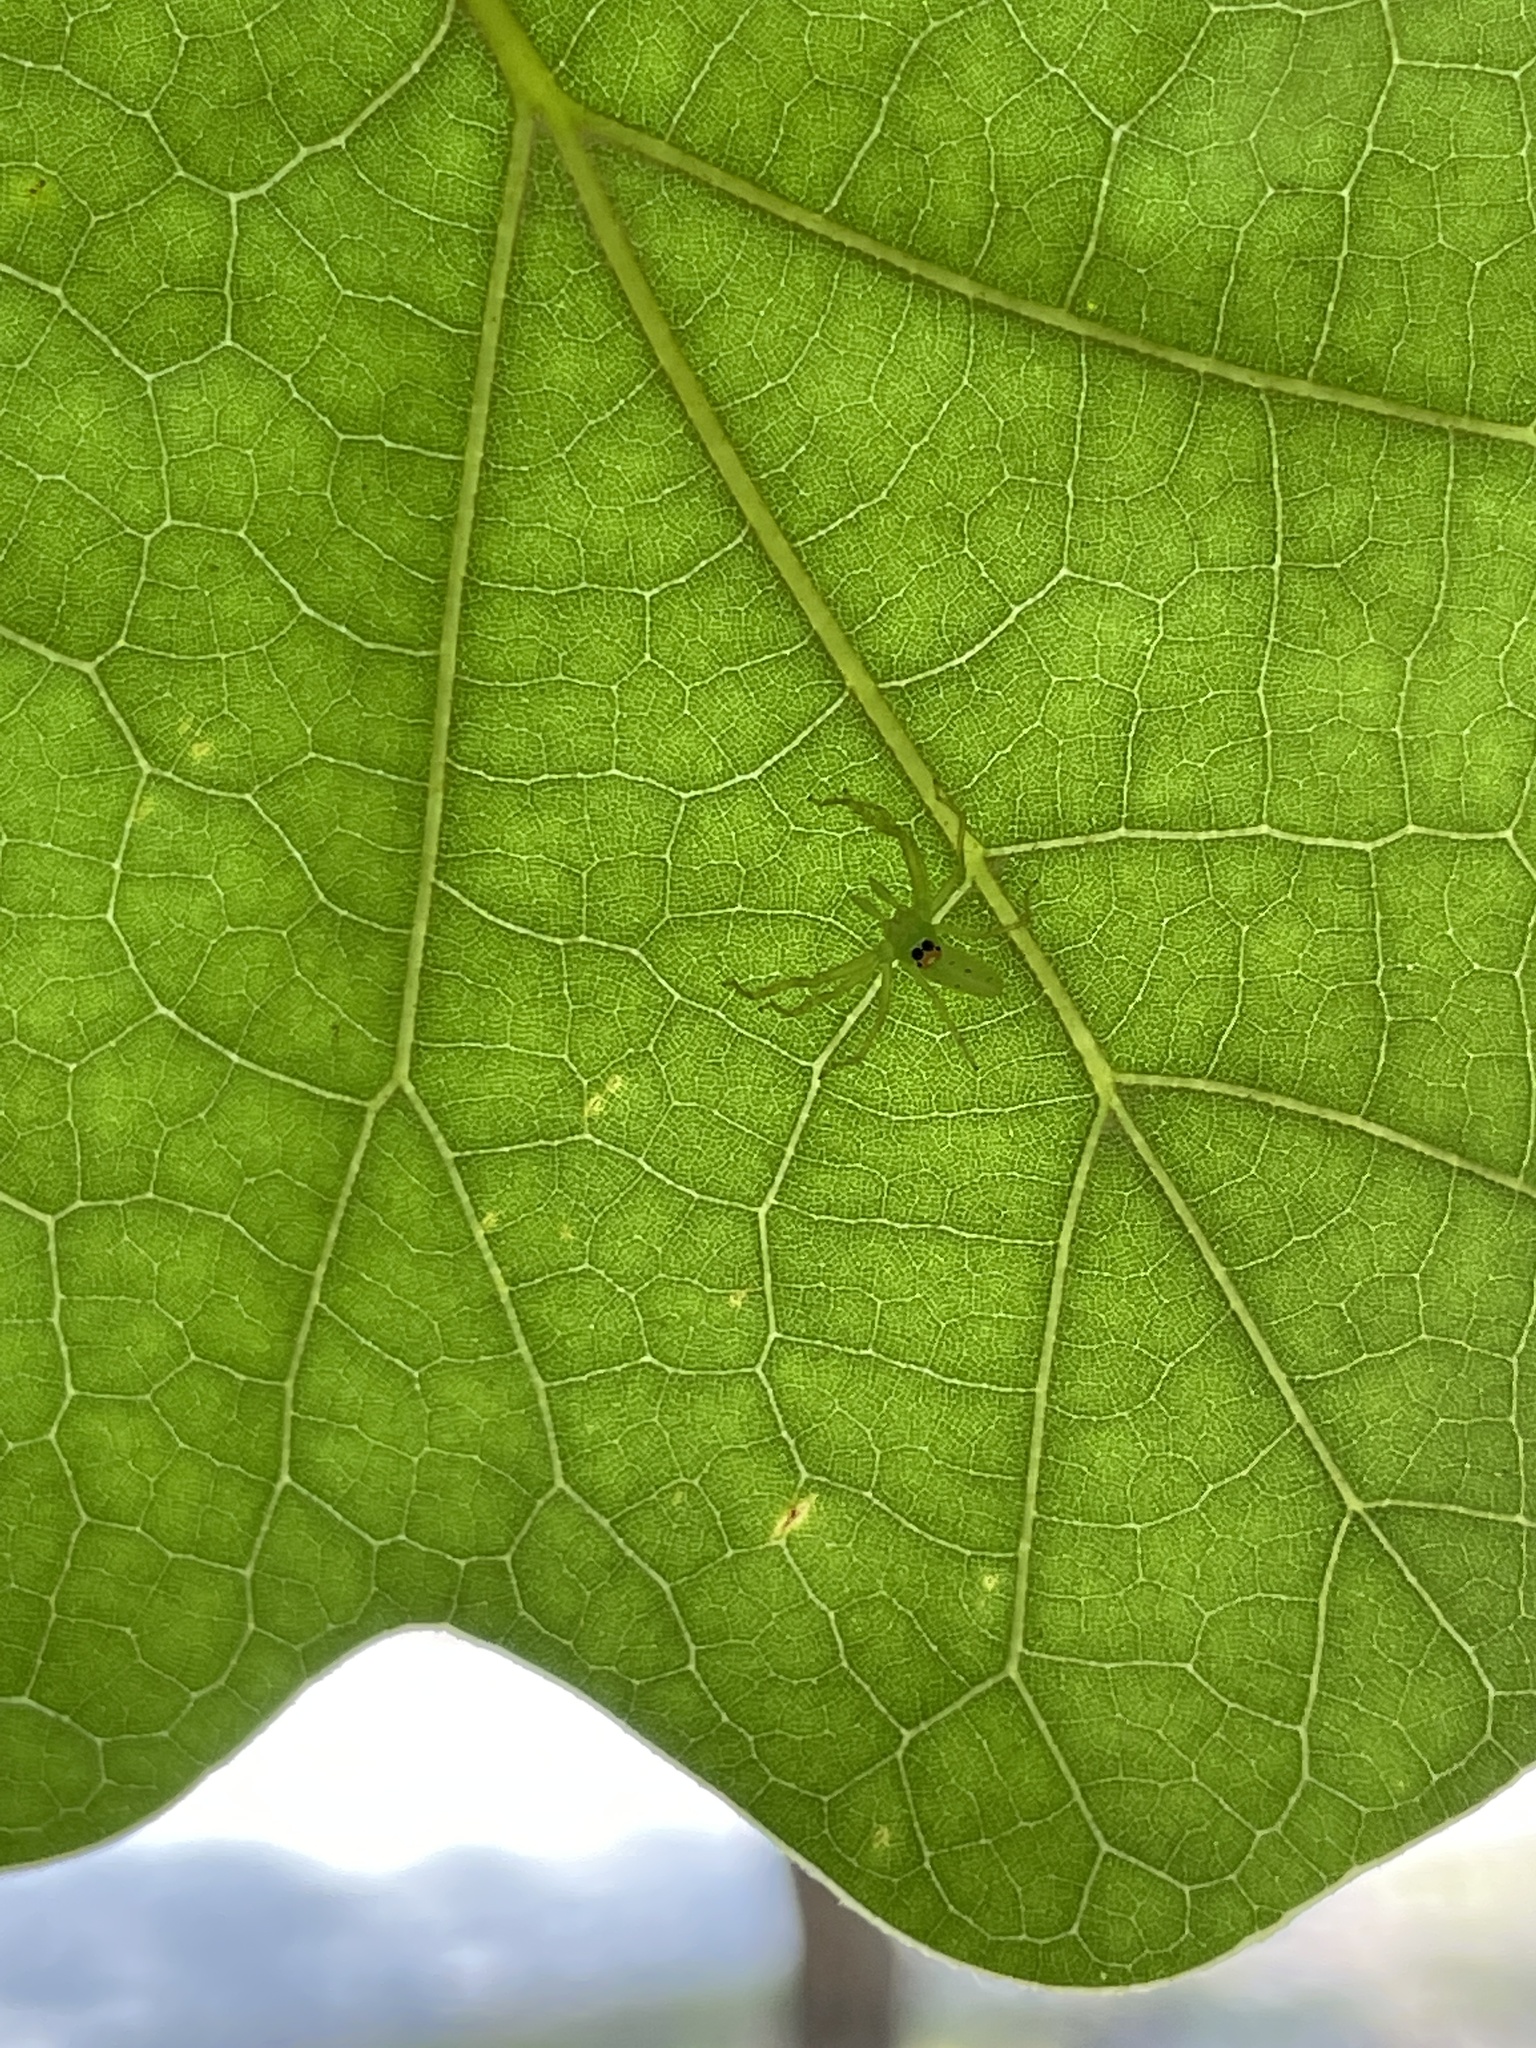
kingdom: Animalia
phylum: Arthropoda
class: Arachnida
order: Araneae
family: Salticidae
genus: Lyssomanes
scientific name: Lyssomanes viridis
